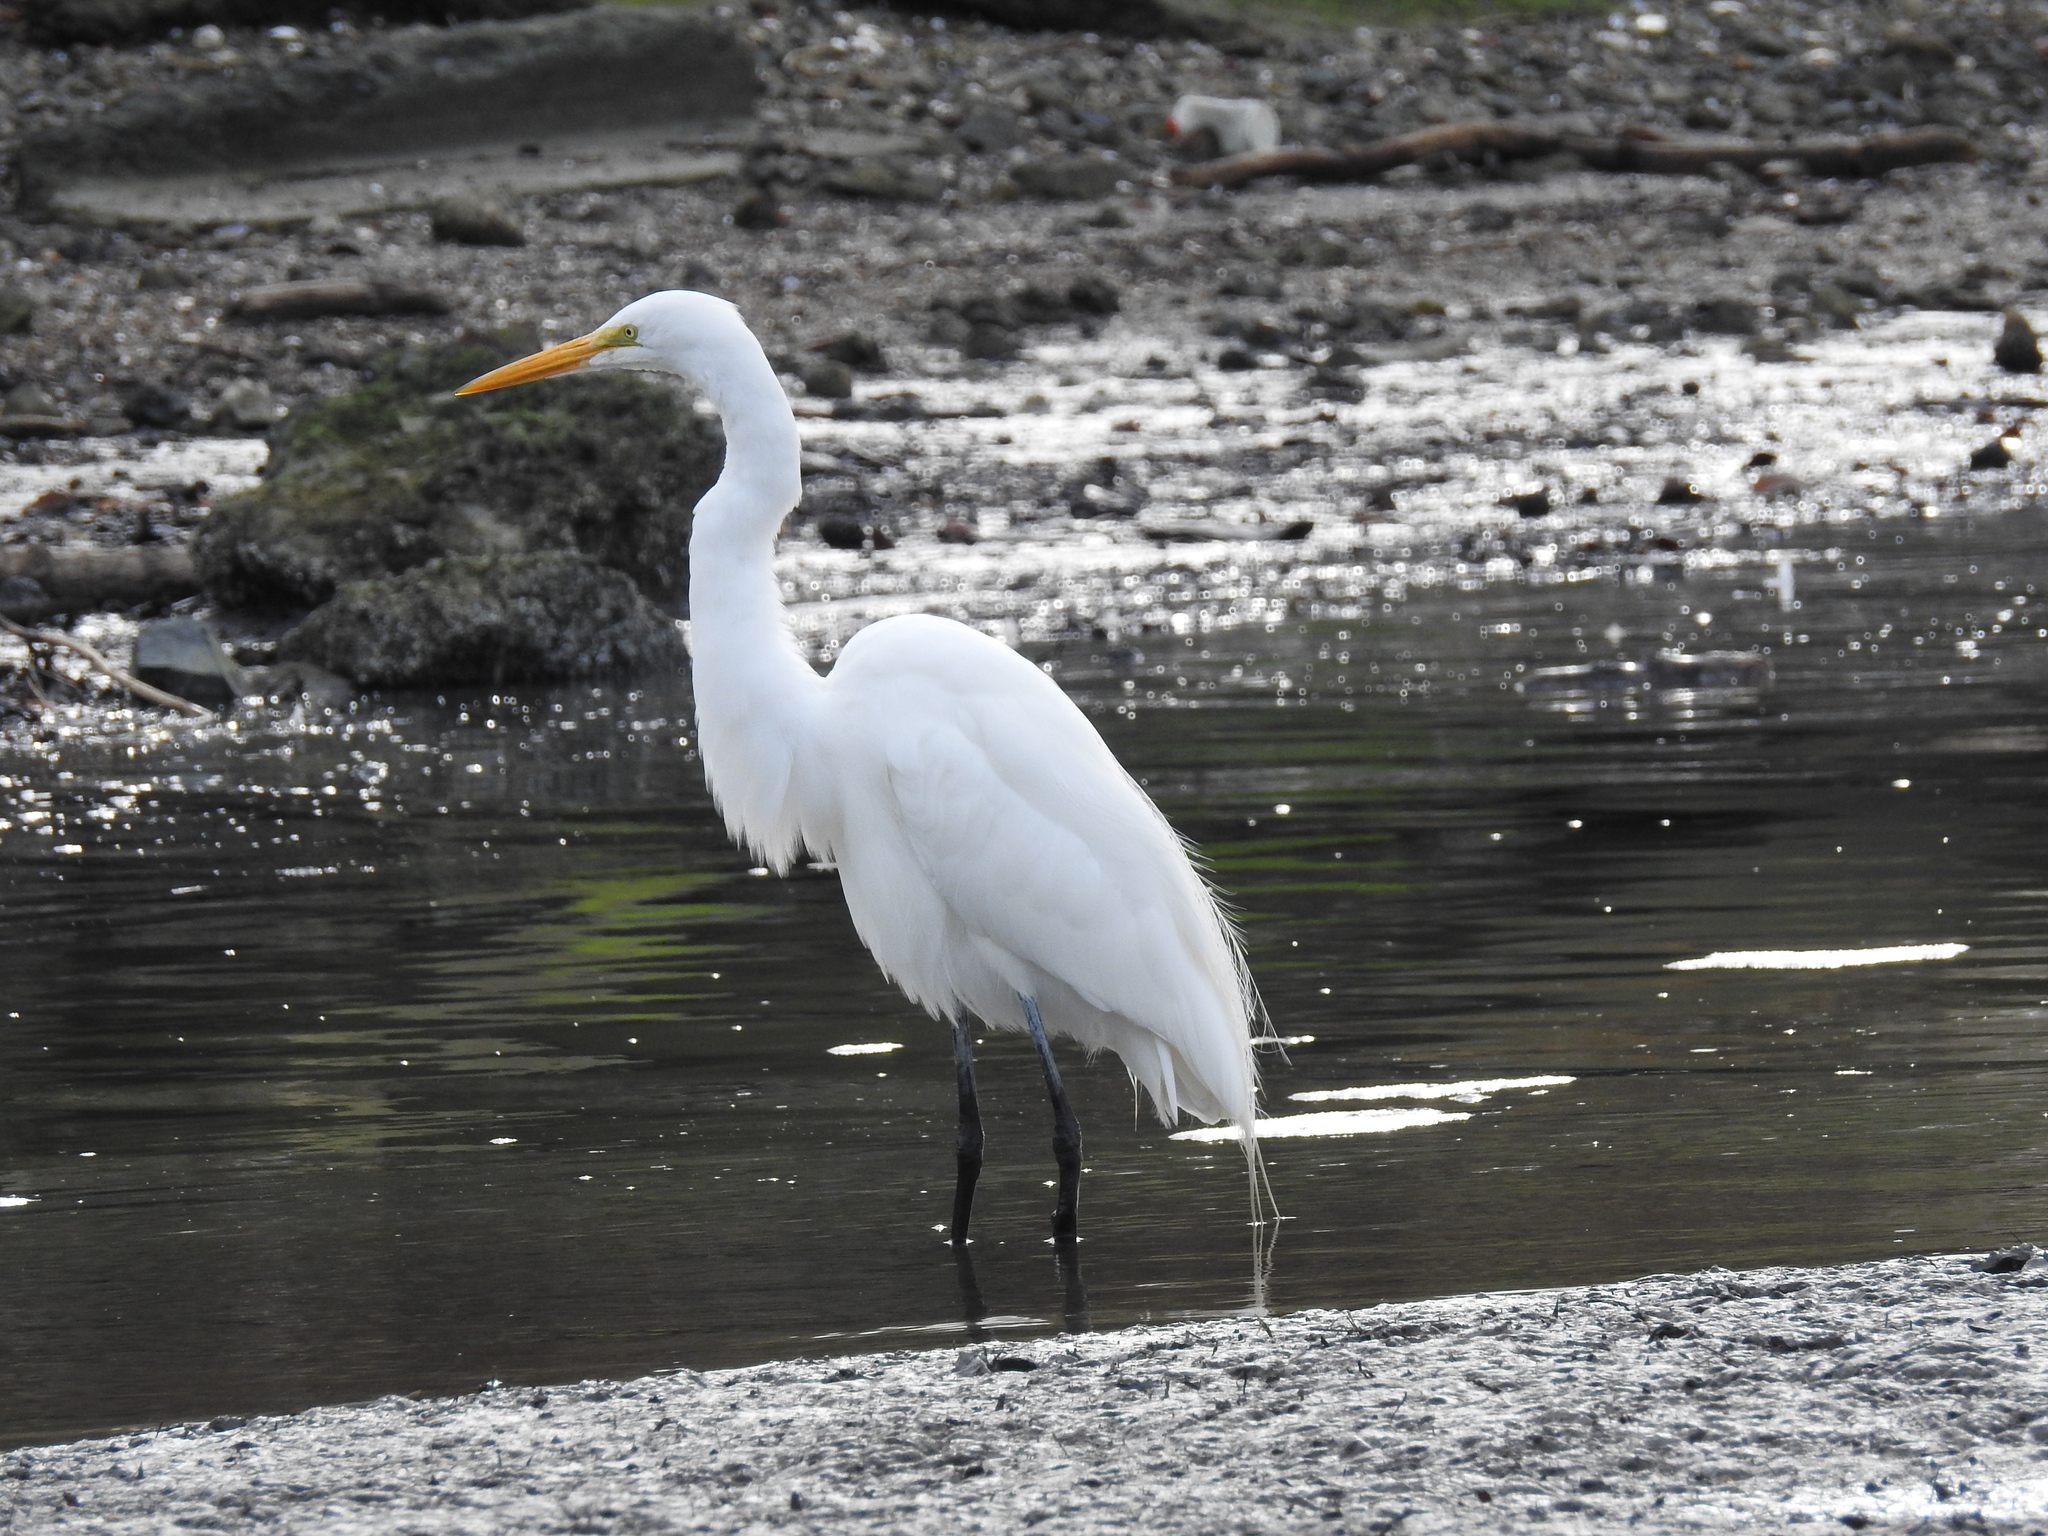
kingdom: Animalia
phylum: Chordata
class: Aves
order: Pelecaniformes
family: Ardeidae
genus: Ardea
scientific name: Ardea alba
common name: Great egret
